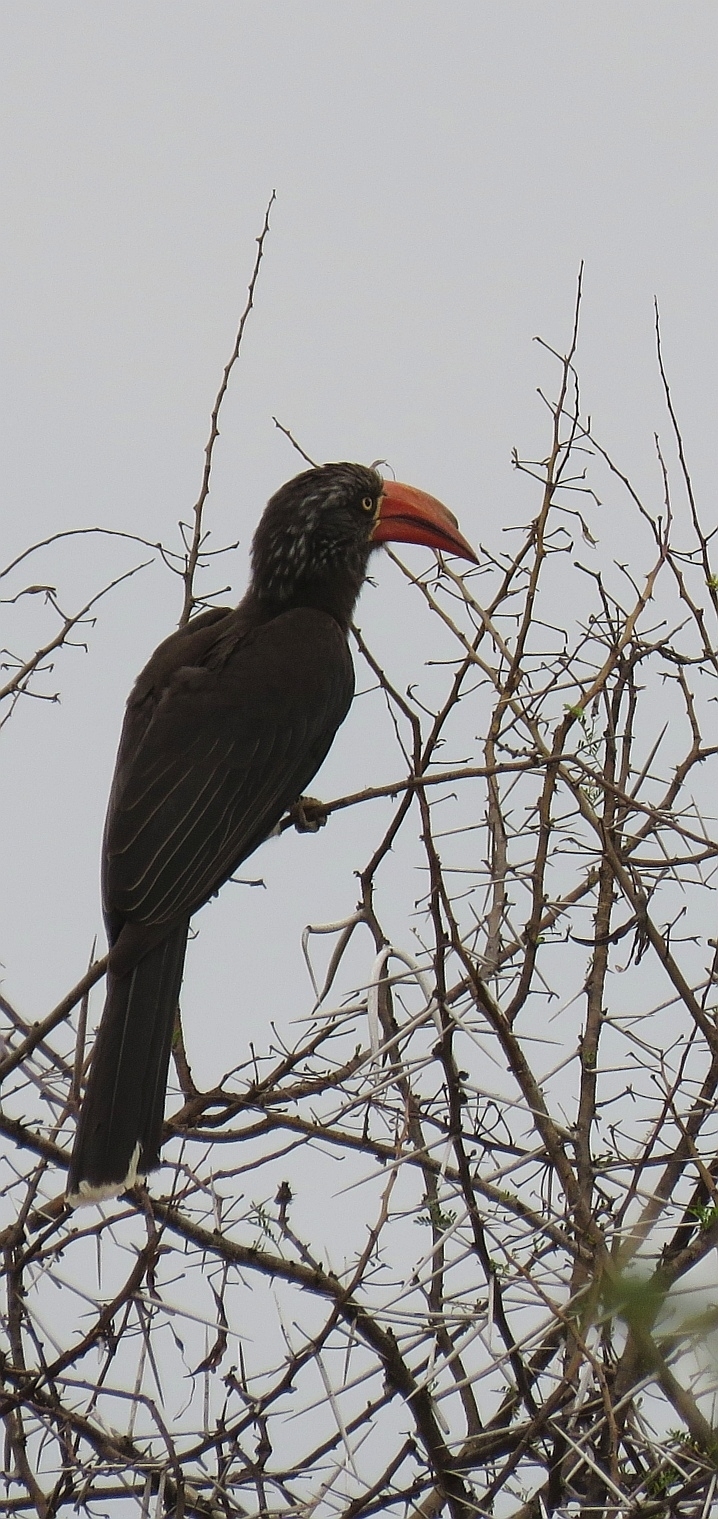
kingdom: Animalia
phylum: Chordata
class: Aves
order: Bucerotiformes
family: Bucerotidae
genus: Lophoceros
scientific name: Lophoceros alboterminatus
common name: Crowned hornbill
